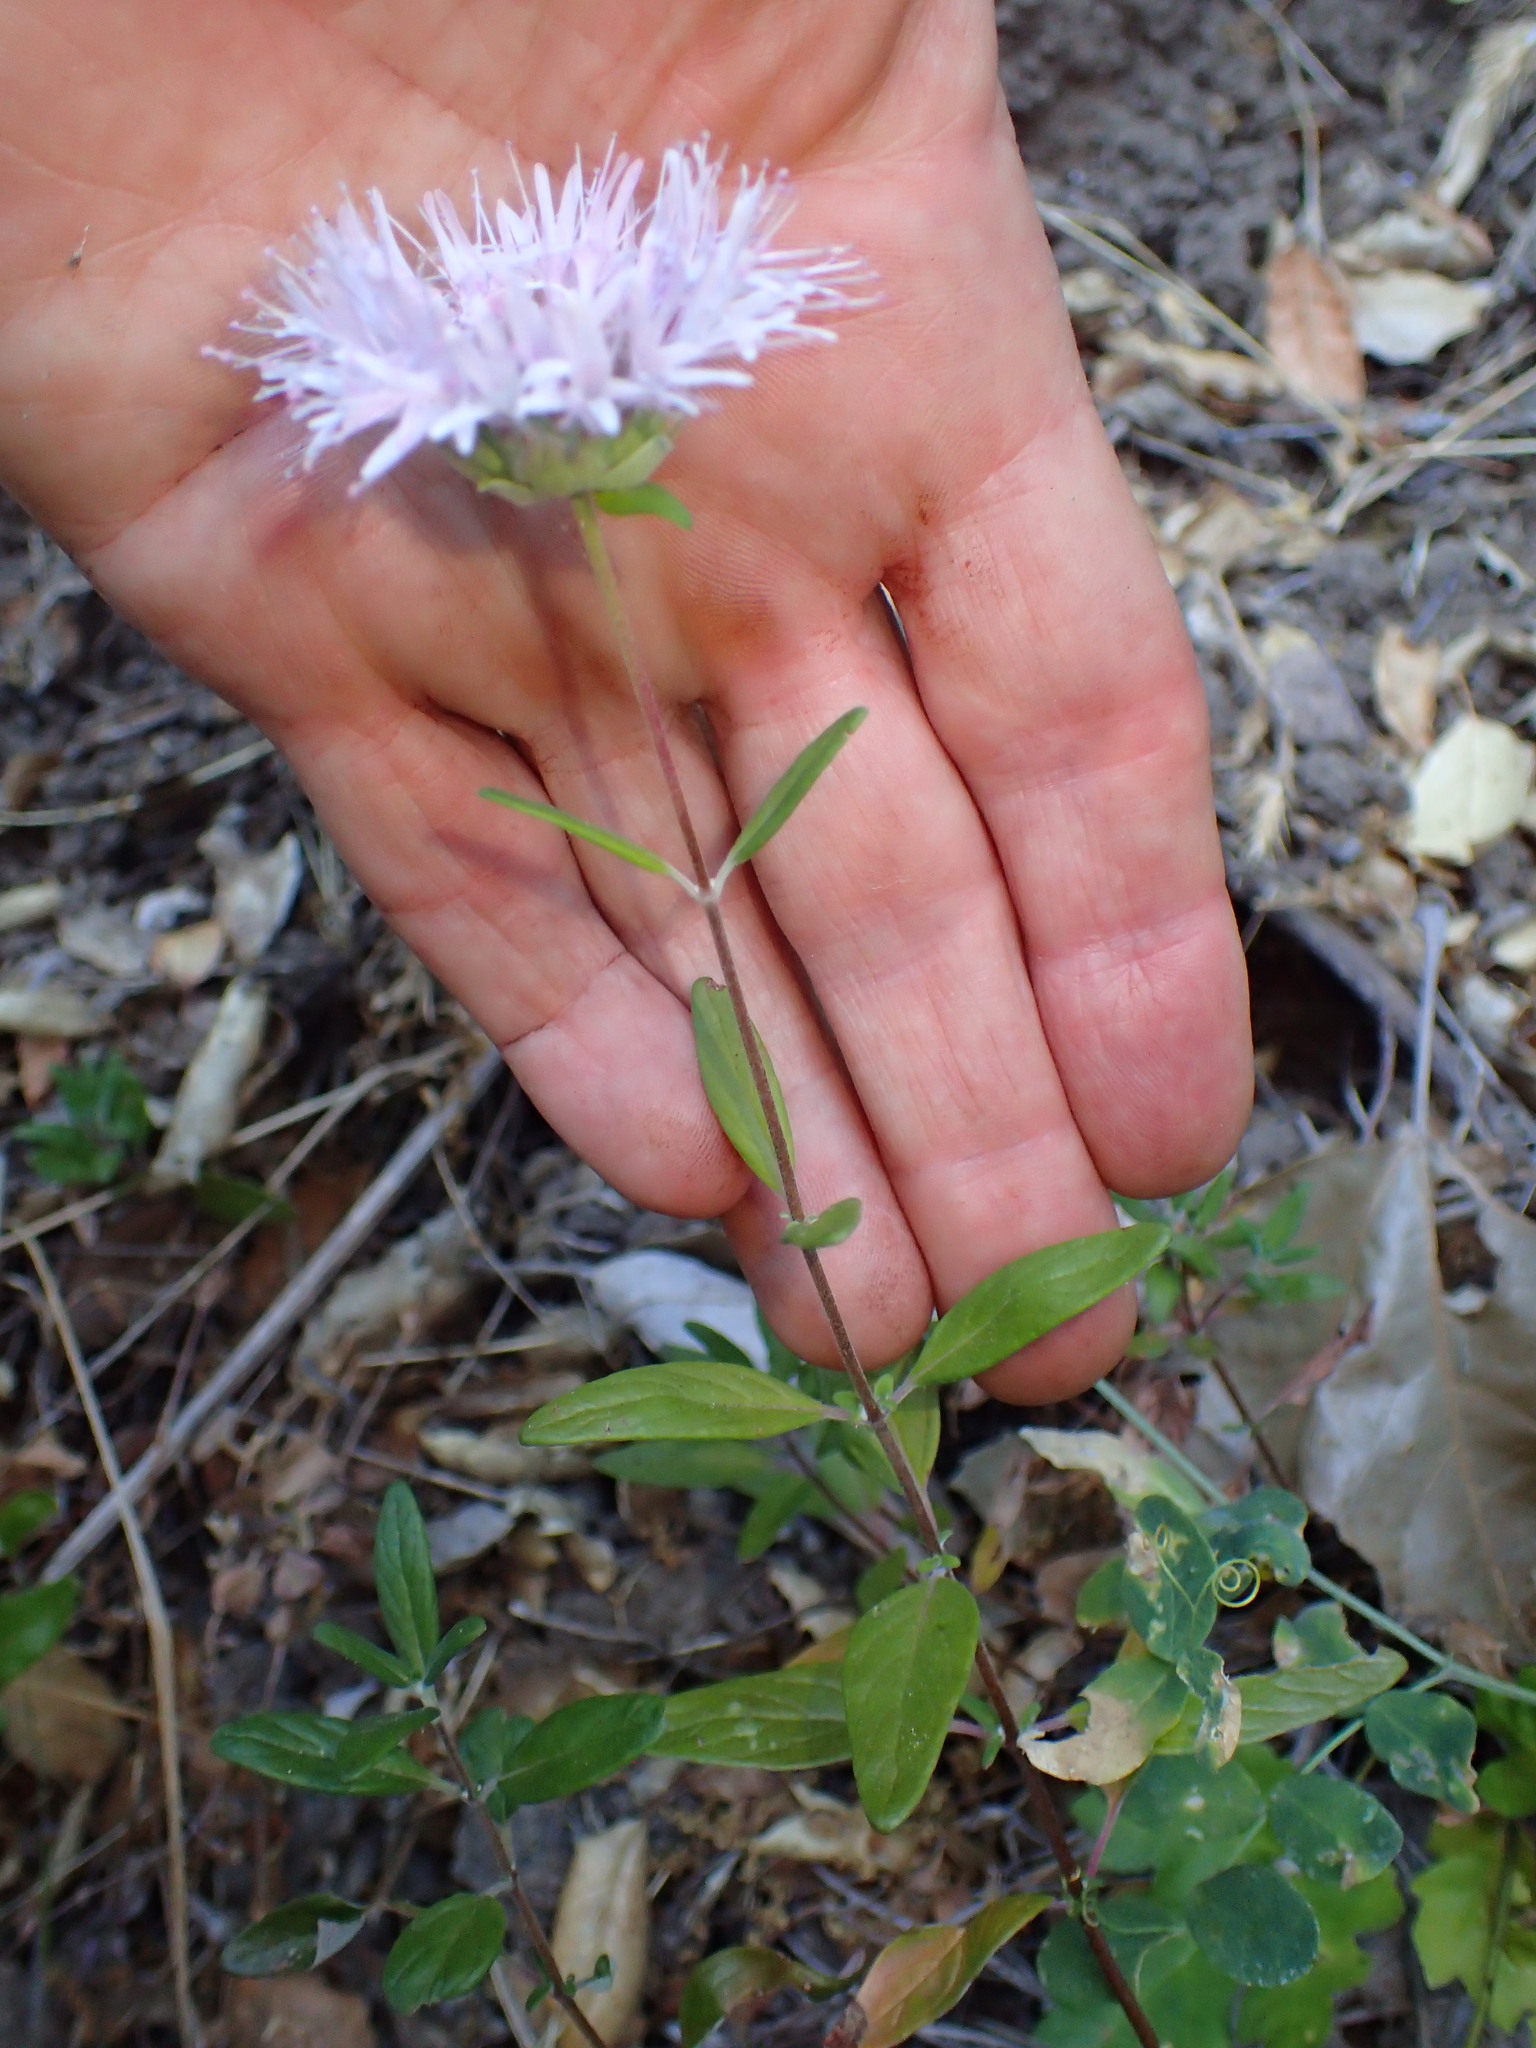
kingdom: Plantae
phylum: Tracheophyta
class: Magnoliopsida
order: Lamiales
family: Lamiaceae
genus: Monardella
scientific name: Monardella hypoleuca
